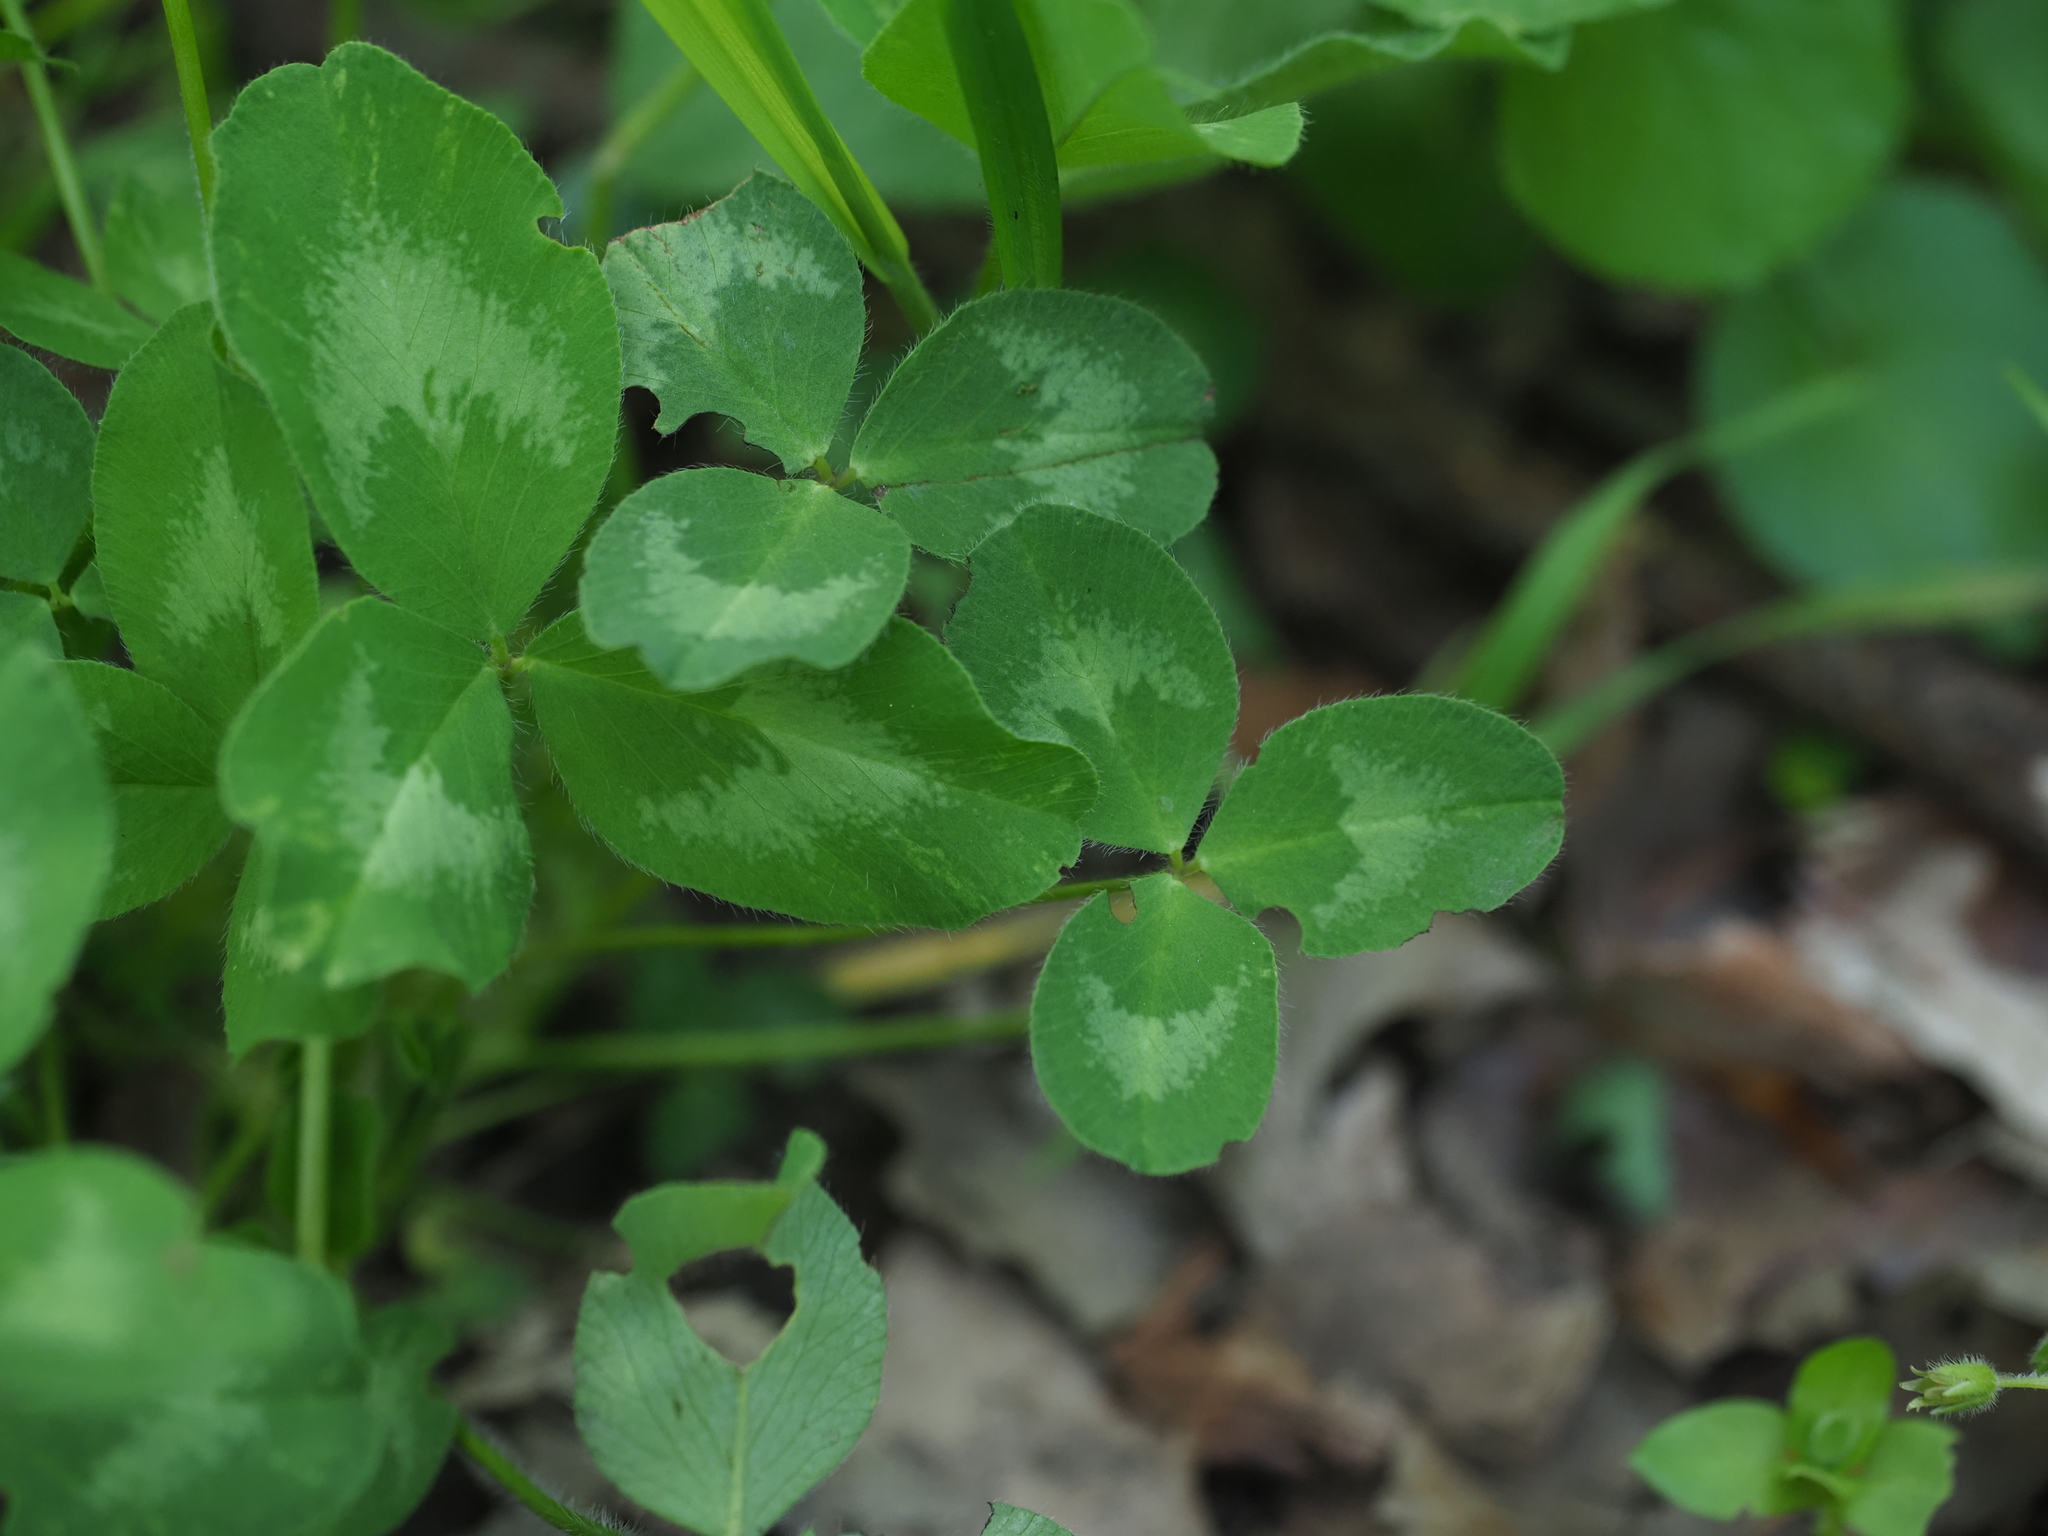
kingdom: Plantae
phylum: Tracheophyta
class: Magnoliopsida
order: Fabales
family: Fabaceae
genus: Trifolium
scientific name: Trifolium pratense
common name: Red clover
